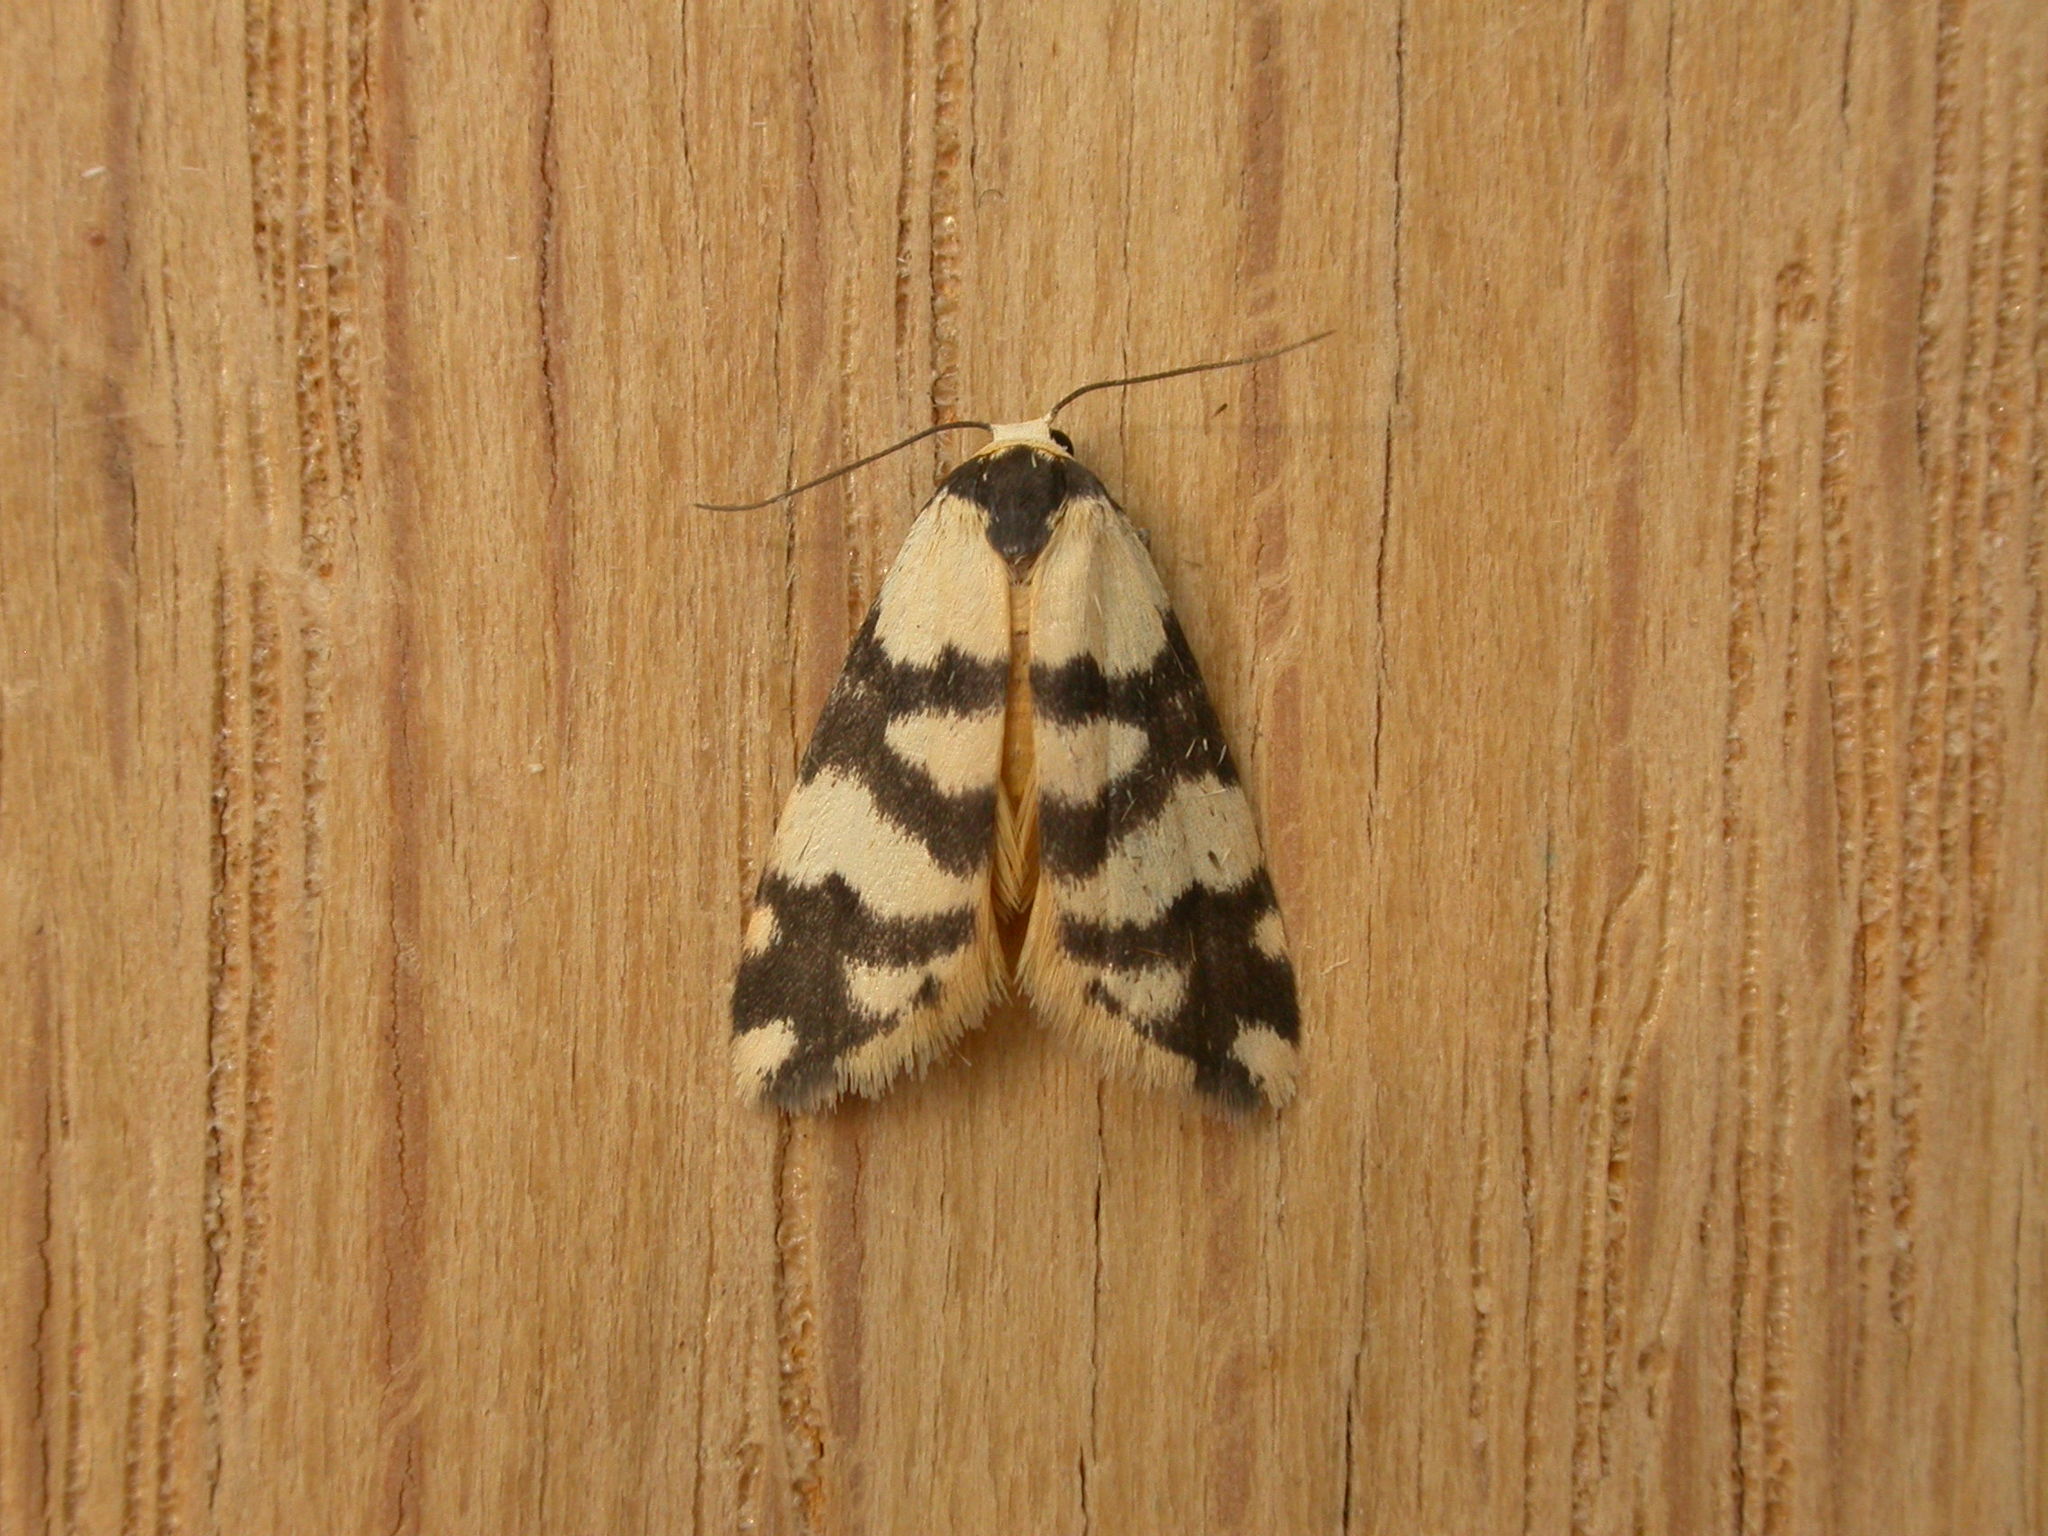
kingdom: Animalia
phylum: Arthropoda
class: Insecta
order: Lepidoptera
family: Erebidae
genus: Thallarcha
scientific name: Thallarcha trissomochla
